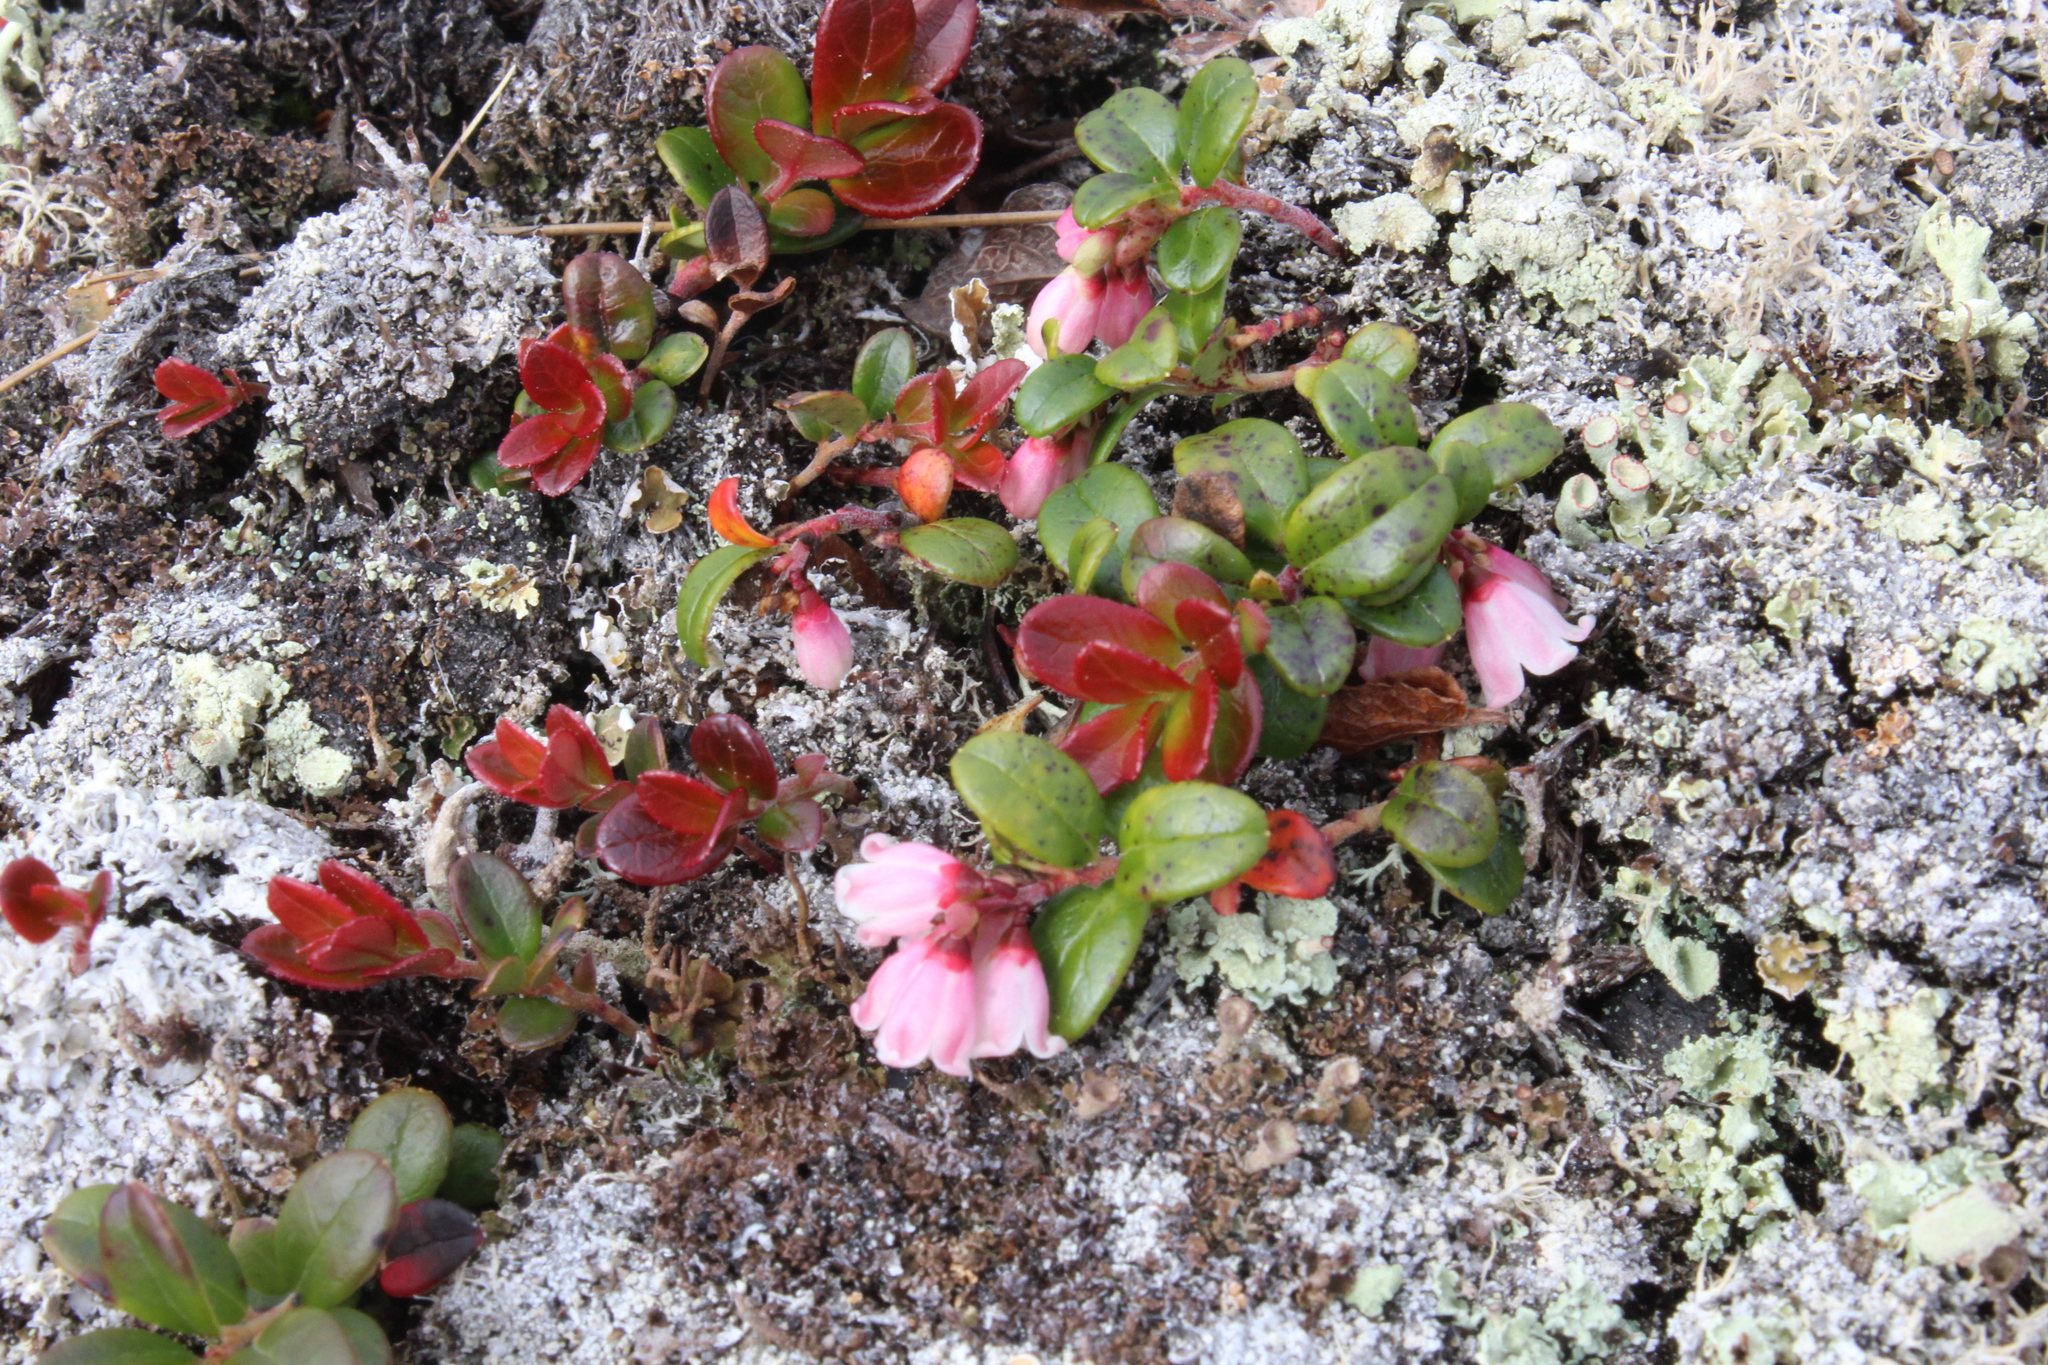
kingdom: Plantae
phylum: Tracheophyta
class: Magnoliopsida
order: Ericales
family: Ericaceae
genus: Vaccinium
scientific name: Vaccinium vitis-idaea
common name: Cowberry
